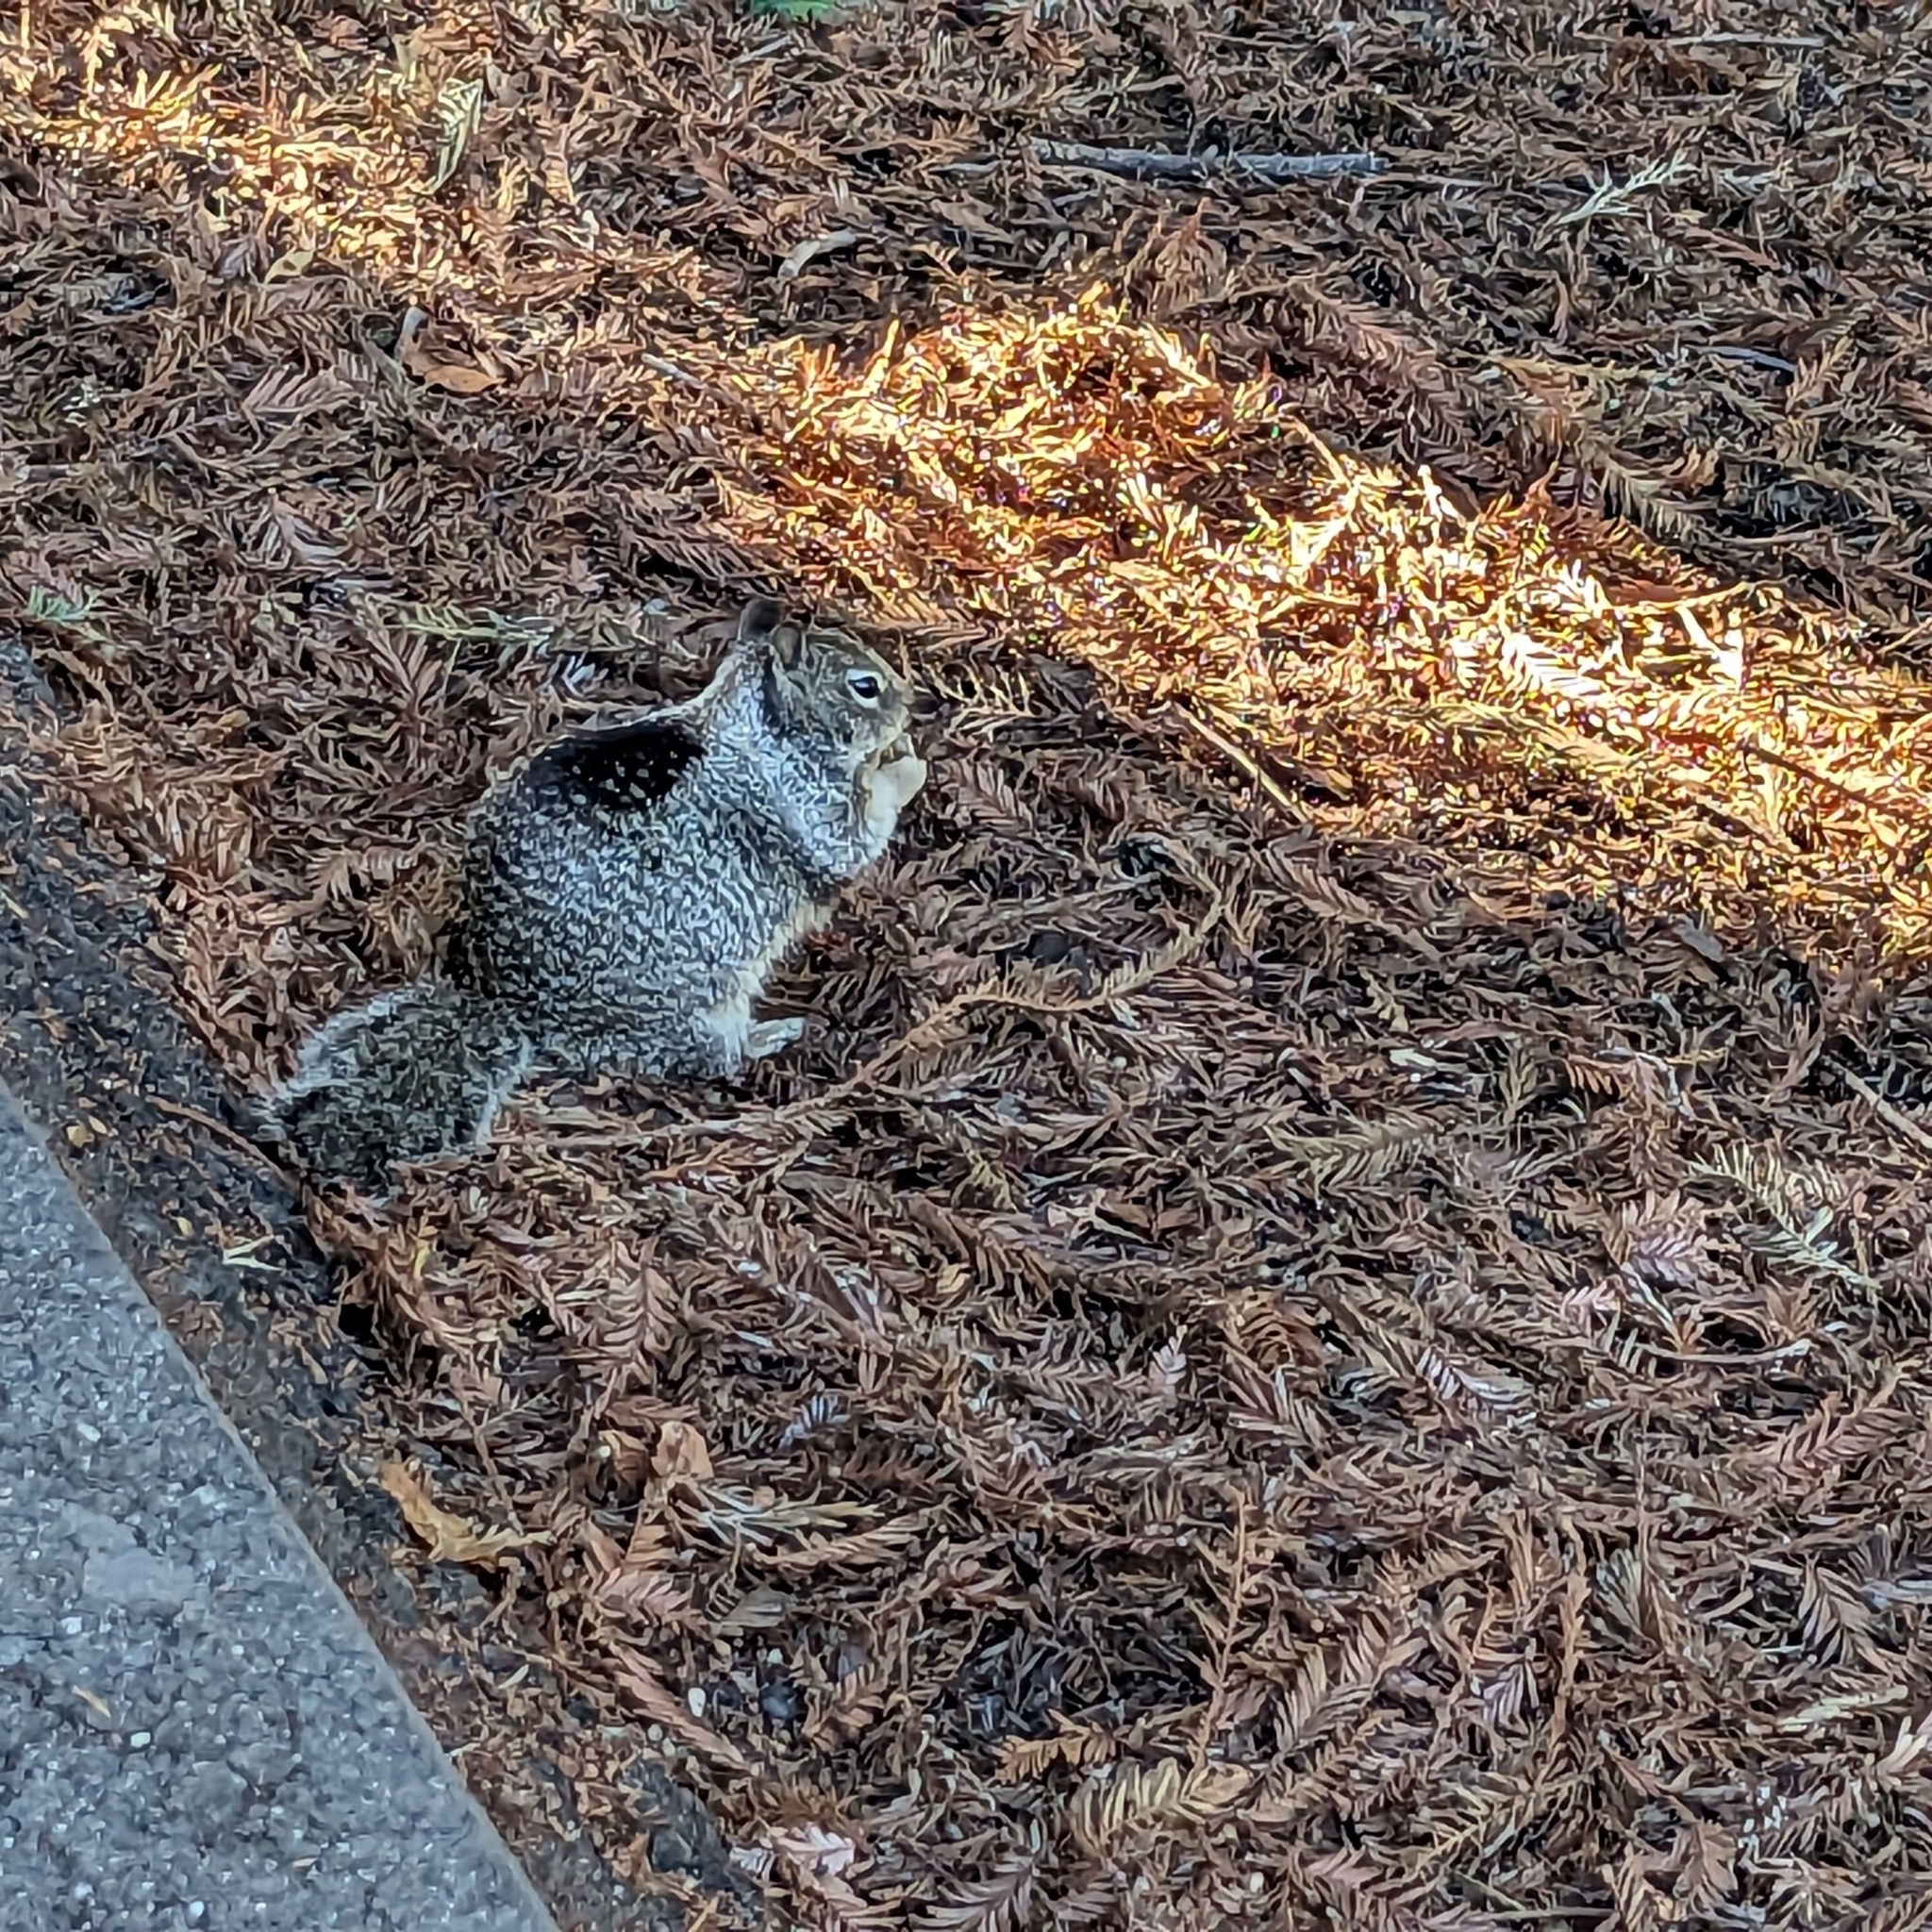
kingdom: Animalia
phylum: Chordata
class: Mammalia
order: Rodentia
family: Sciuridae
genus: Otospermophilus
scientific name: Otospermophilus beecheyi
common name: California ground squirrel
